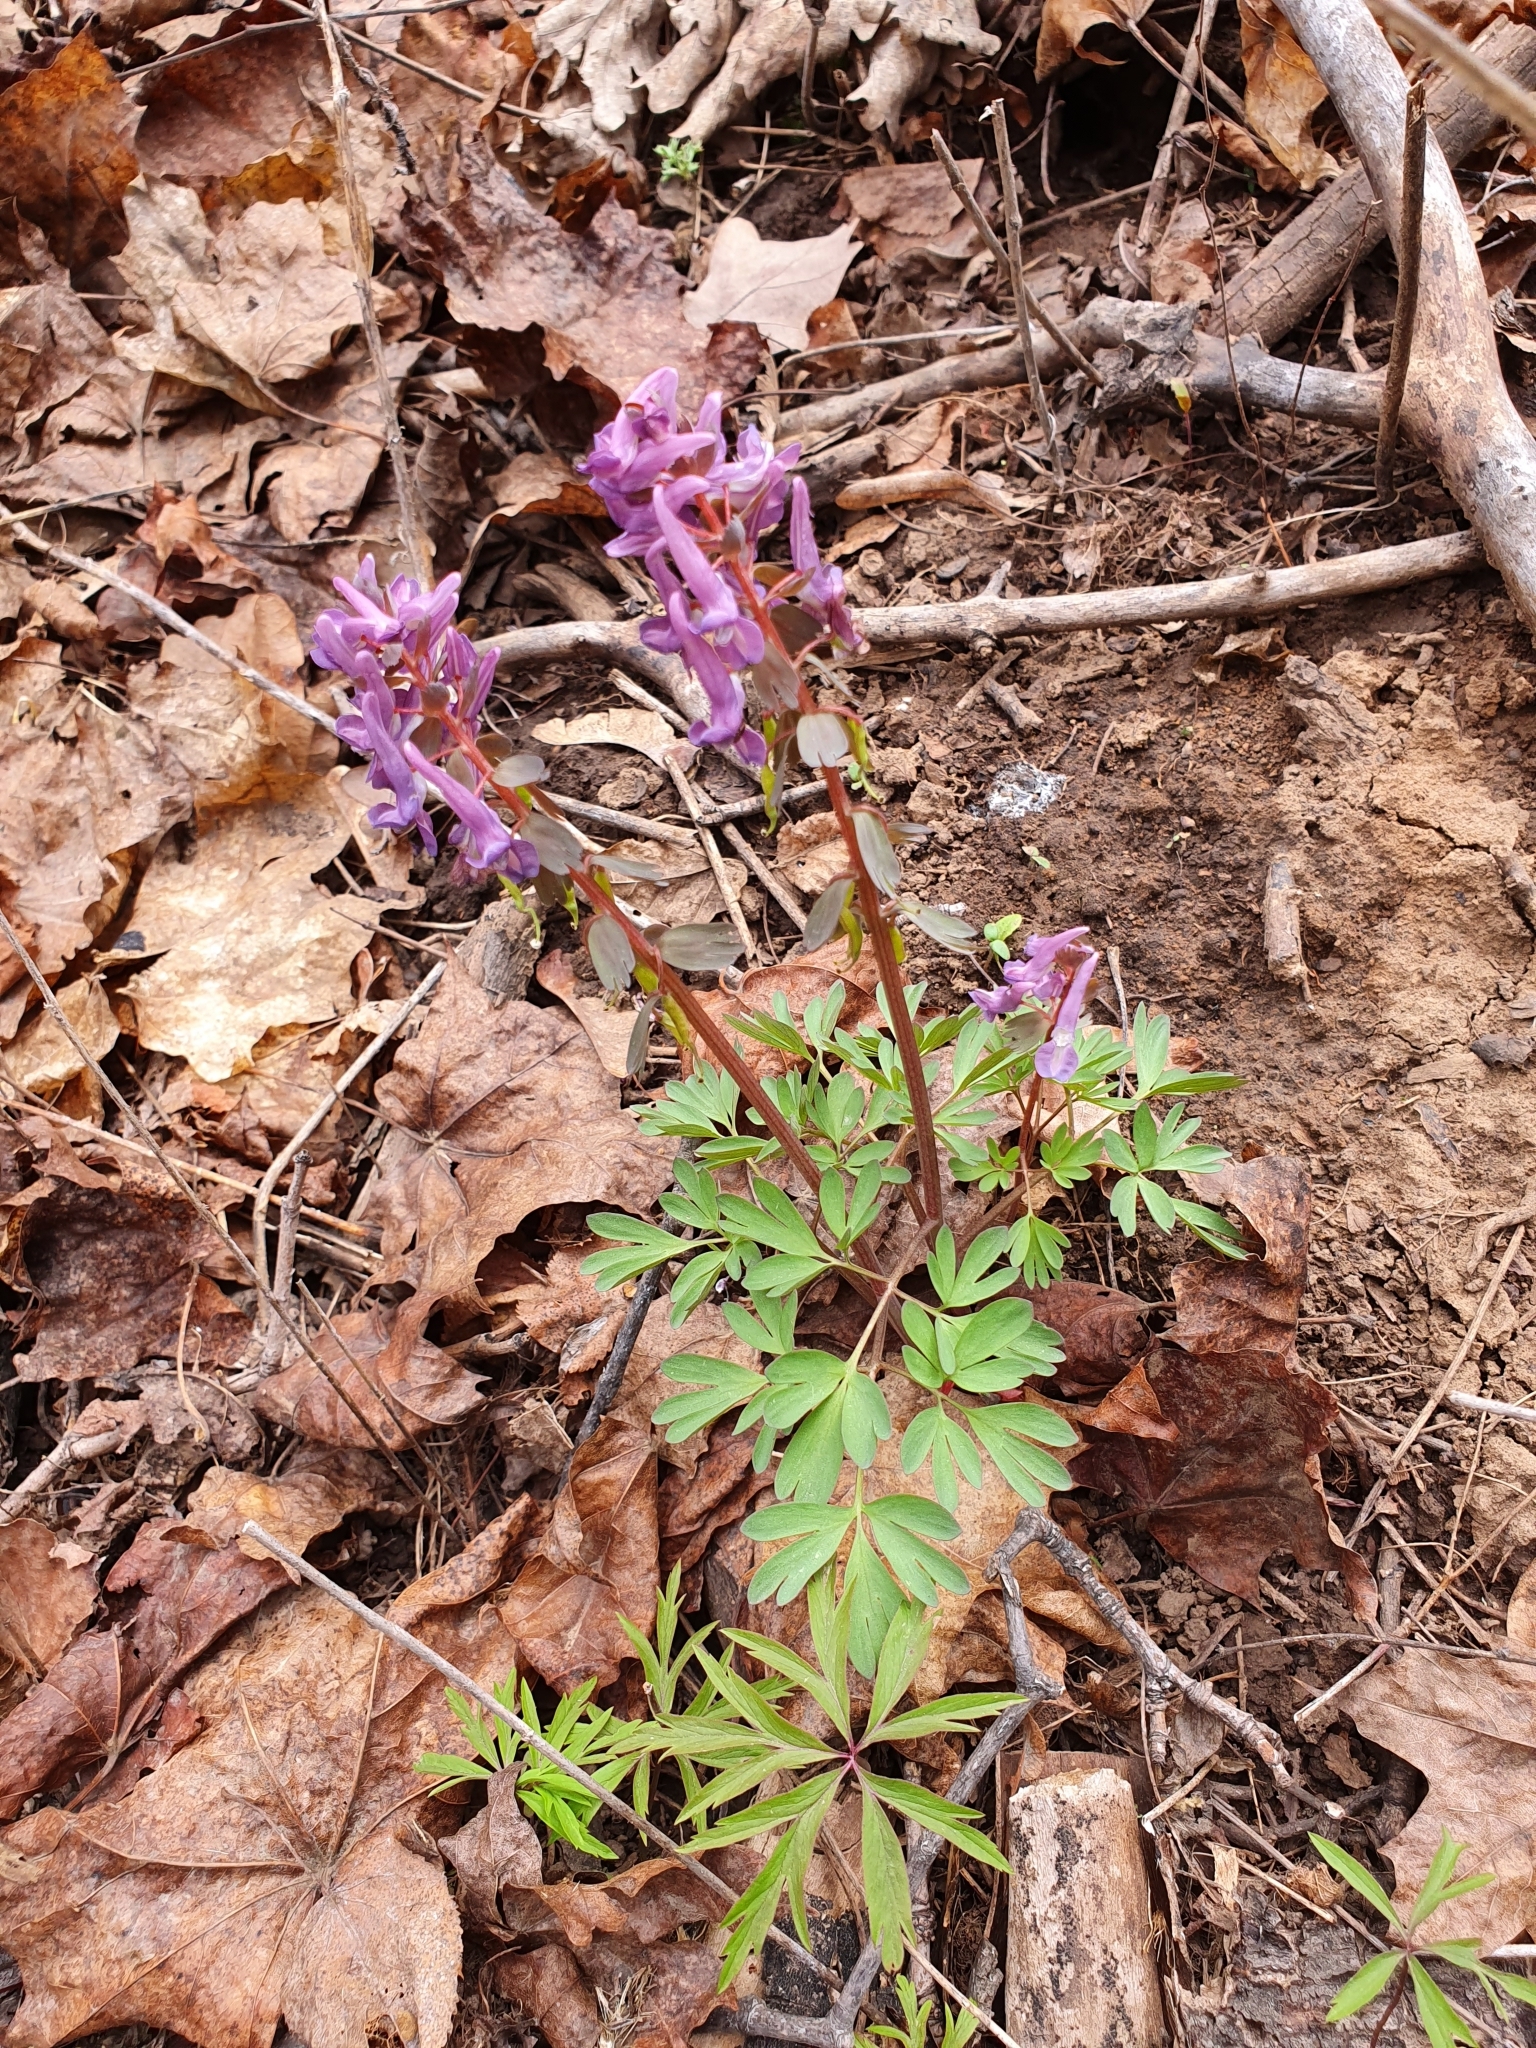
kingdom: Plantae
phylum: Tracheophyta
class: Magnoliopsida
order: Ranunculales
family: Papaveraceae
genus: Corydalis
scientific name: Corydalis solida
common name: Bird-in-a-bush
